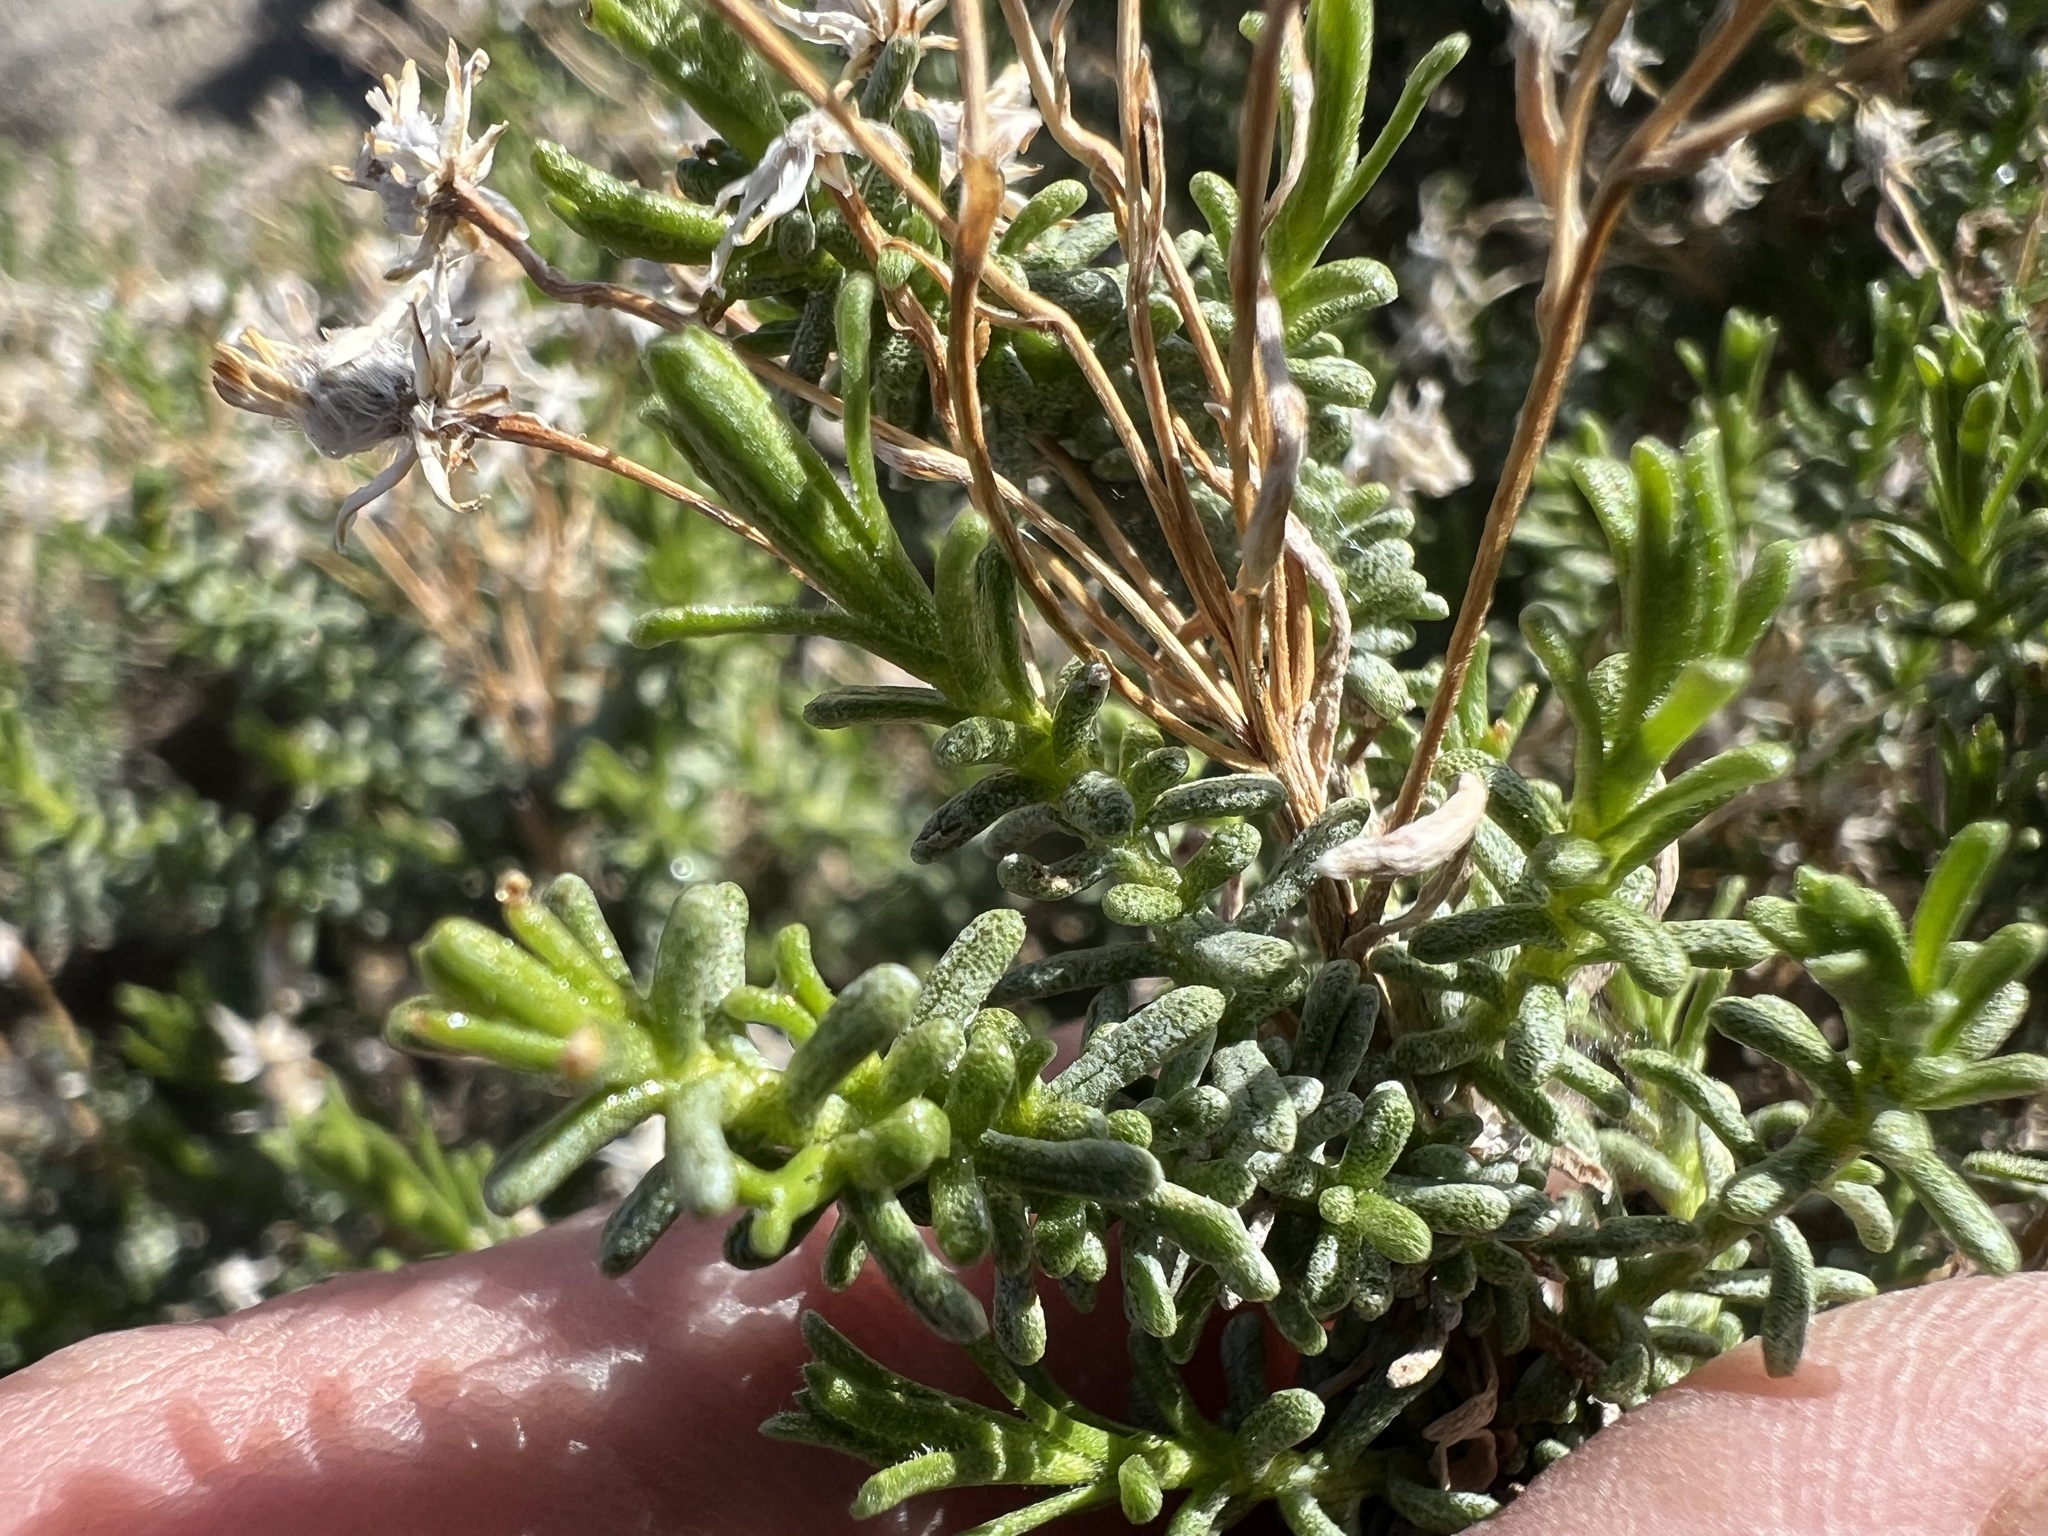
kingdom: Plantae
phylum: Tracheophyta
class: Magnoliopsida
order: Asterales
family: Asteraceae
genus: Ericameria
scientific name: Ericameria cooperi
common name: Cooper's goldenbush
